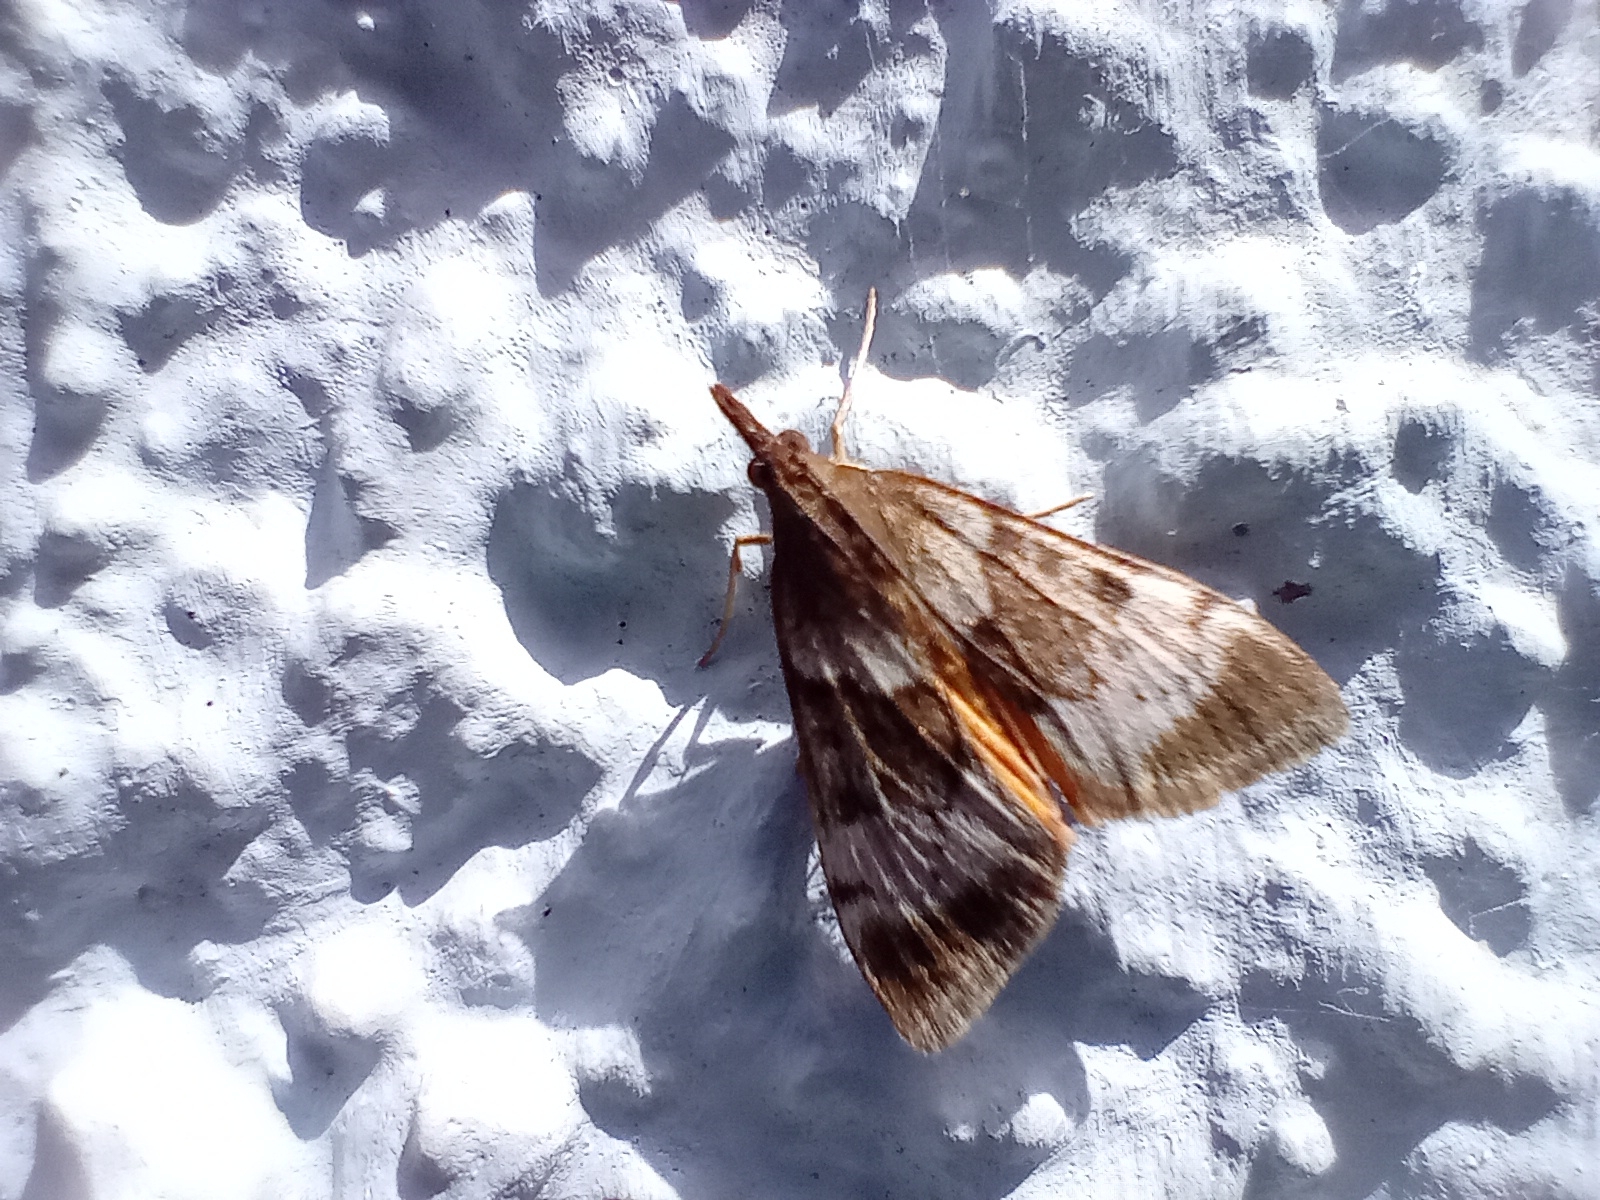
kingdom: Animalia
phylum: Arthropoda
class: Insecta
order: Lepidoptera
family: Crambidae
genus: Uresiphita
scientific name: Uresiphita
